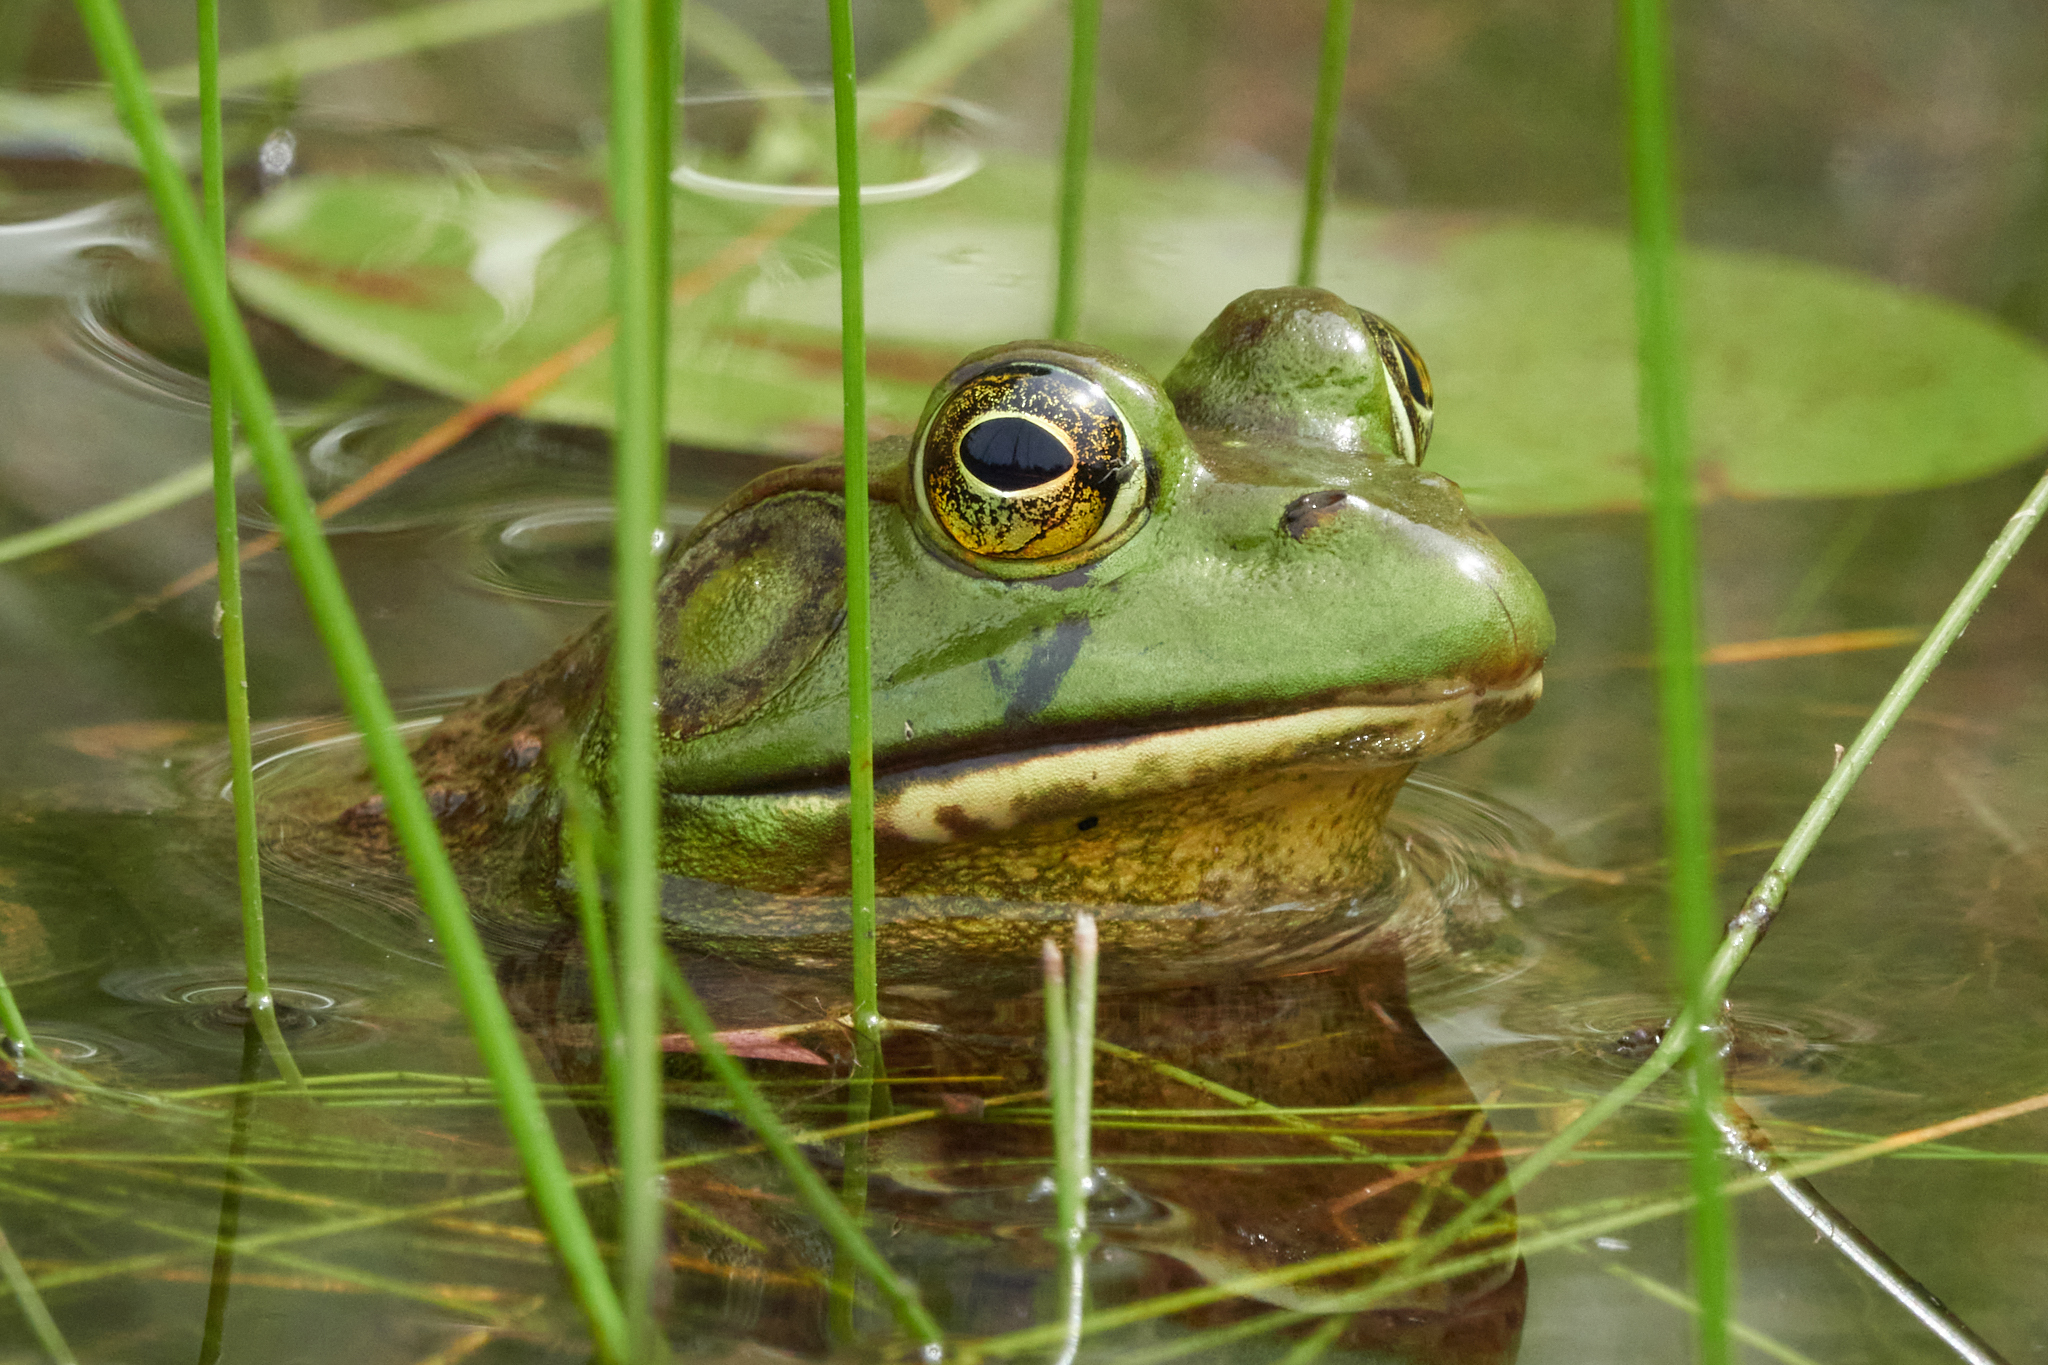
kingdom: Animalia
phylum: Chordata
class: Amphibia
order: Anura
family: Ranidae
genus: Lithobates
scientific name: Lithobates catesbeianus
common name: American bullfrog
